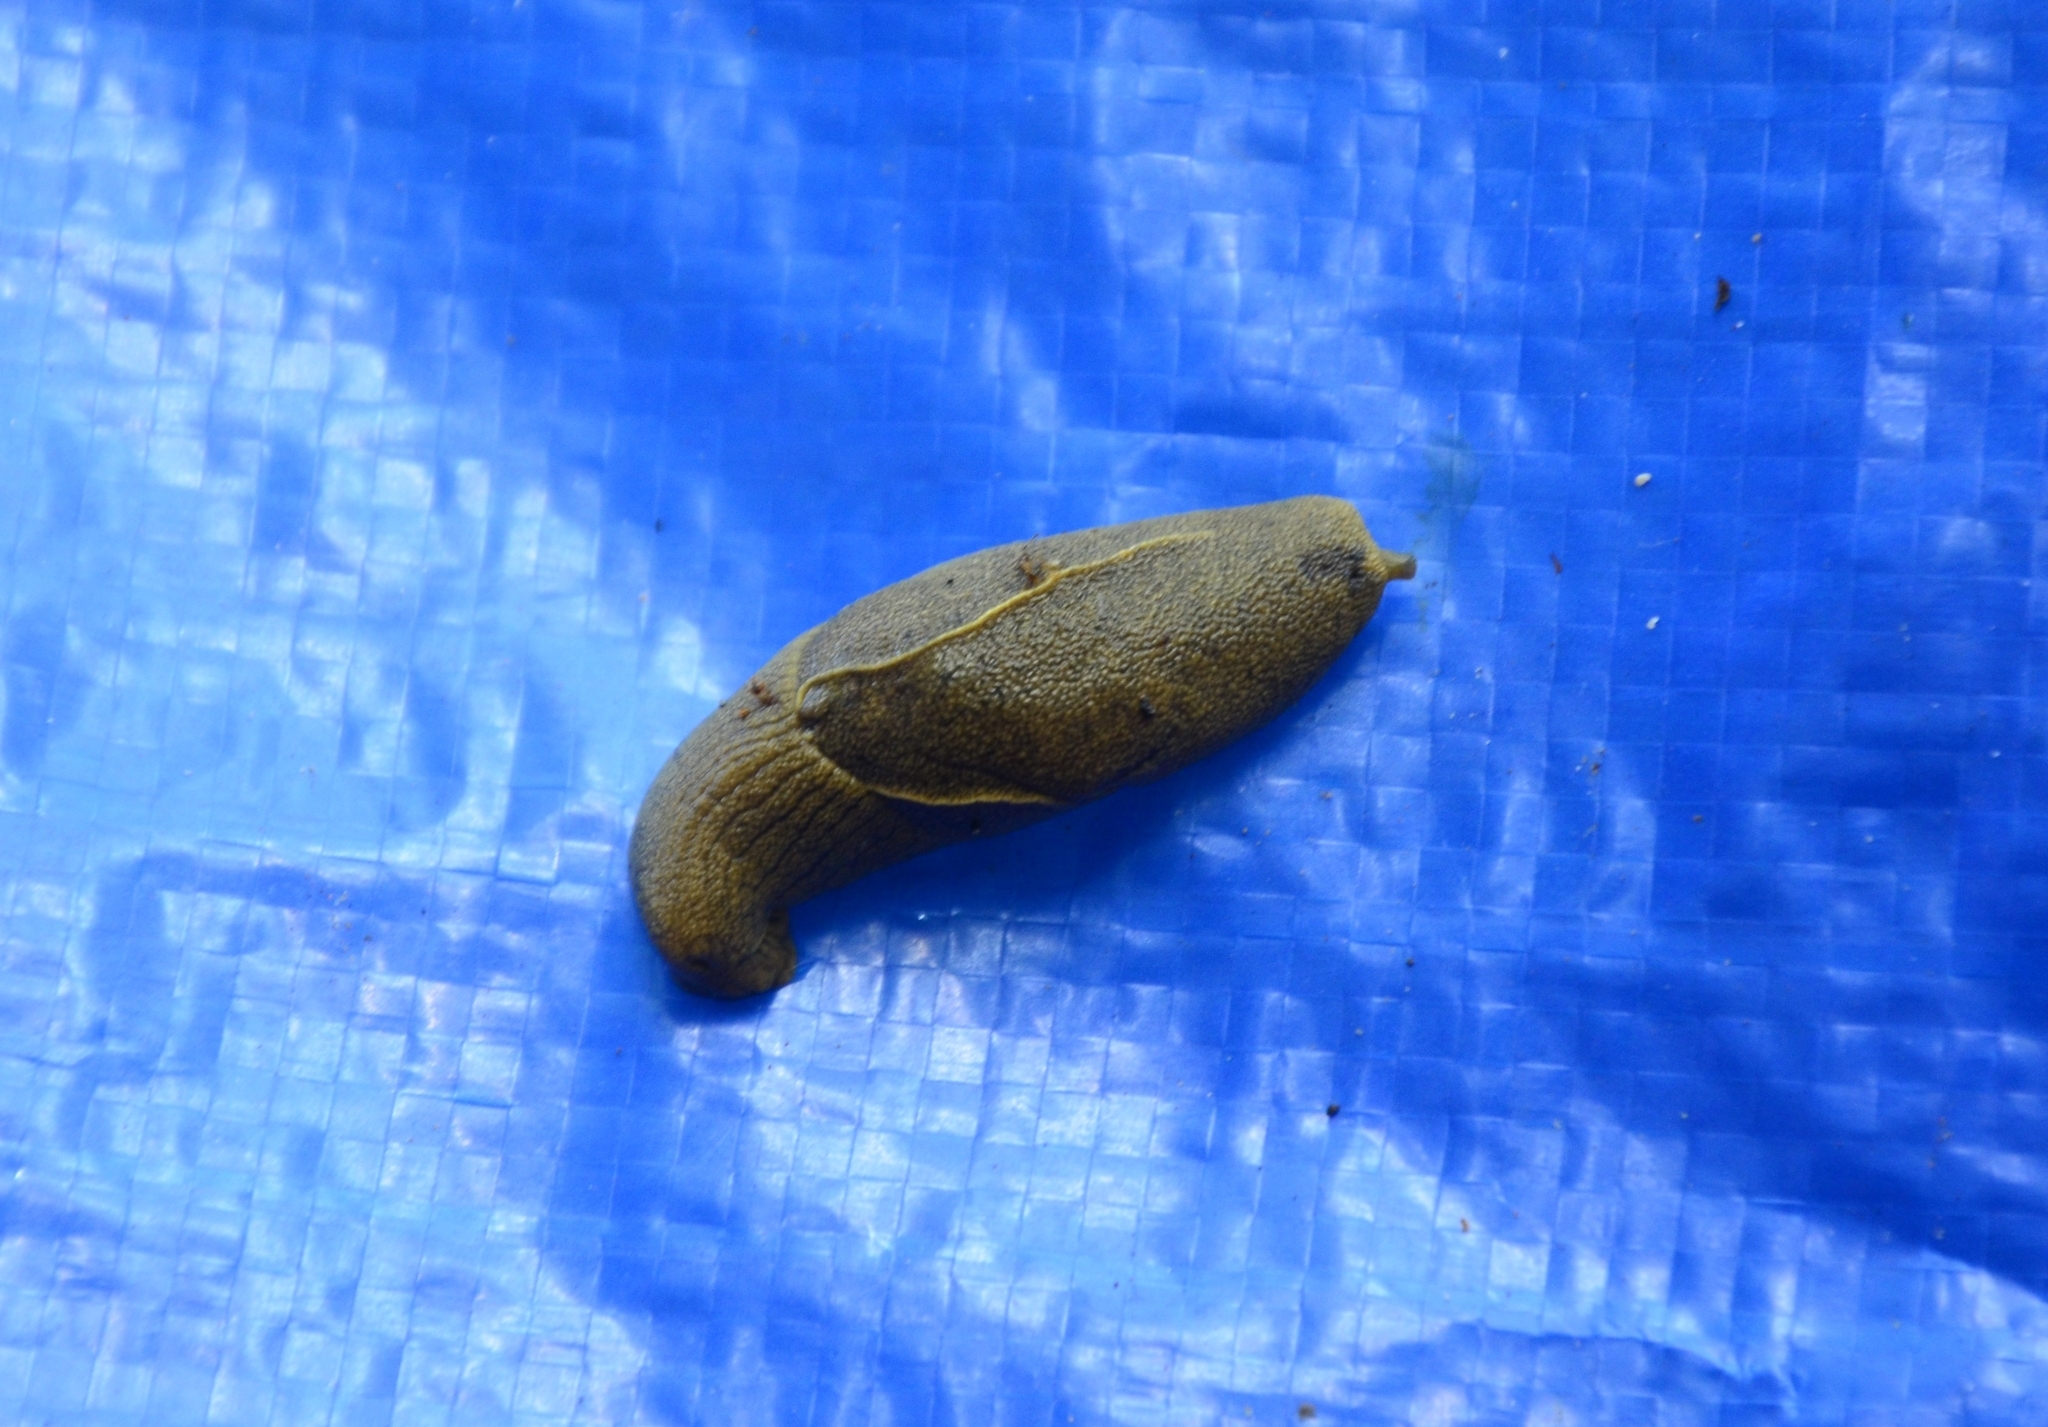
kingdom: Animalia
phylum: Mollusca
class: Gastropoda
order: Stylommatophora
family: Ariophantidae
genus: Mariaella
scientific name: Mariaella dussumieri
